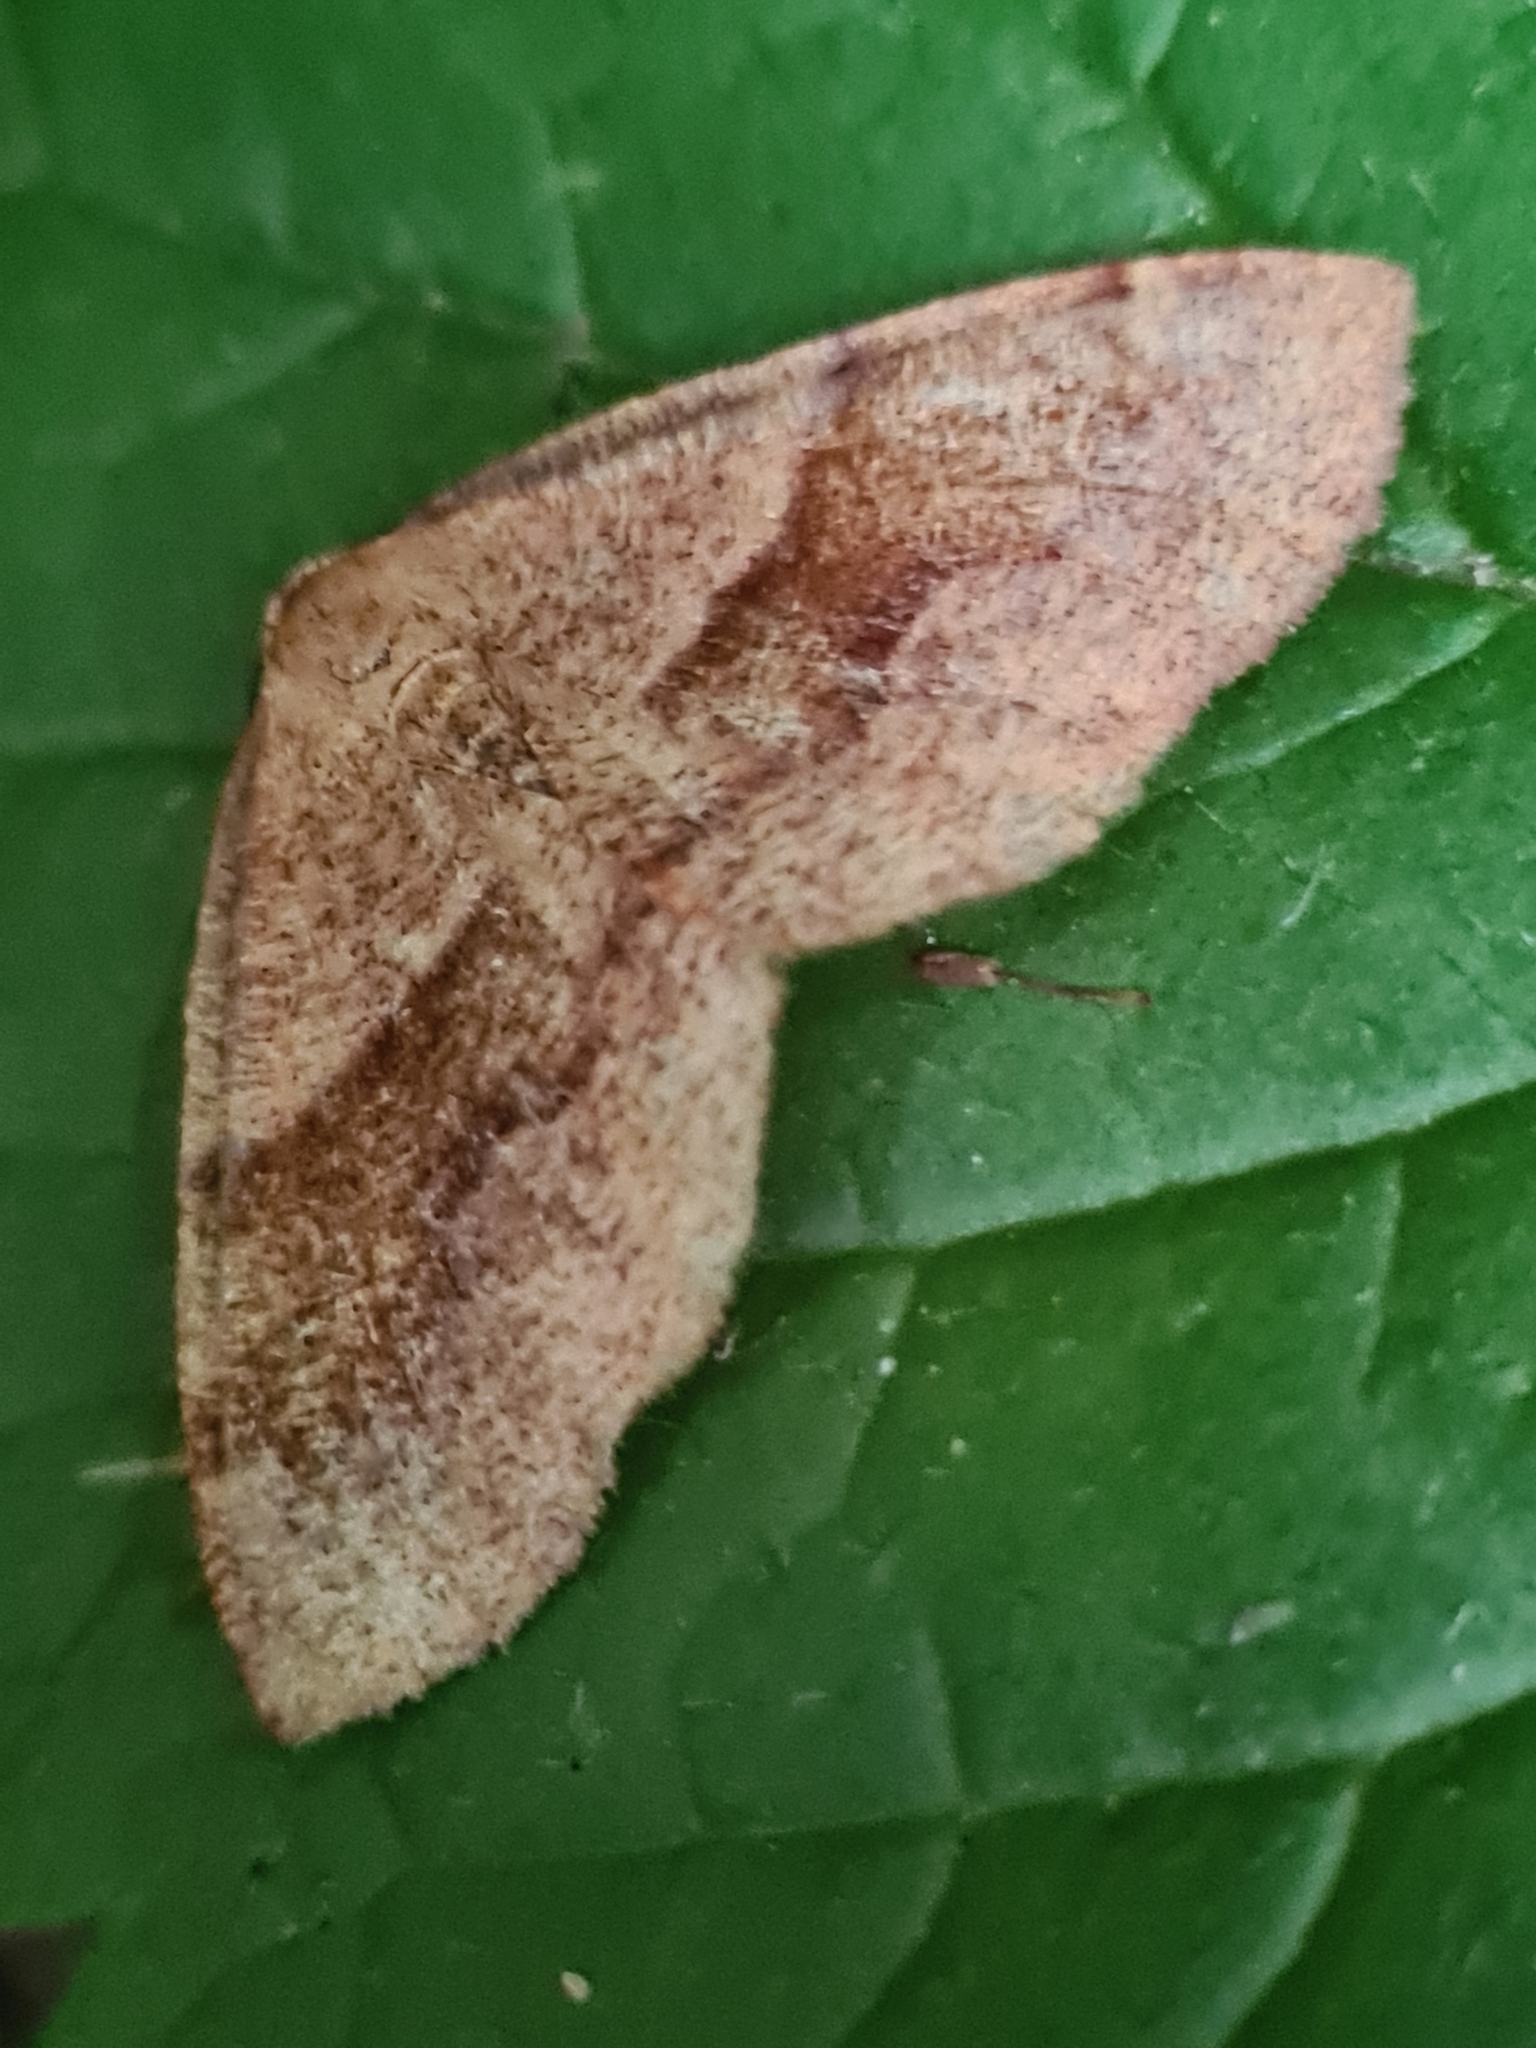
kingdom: Animalia
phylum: Arthropoda
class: Insecta
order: Lepidoptera
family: Geometridae
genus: Plagodis
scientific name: Plagodis pulveraria
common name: Barred umber
